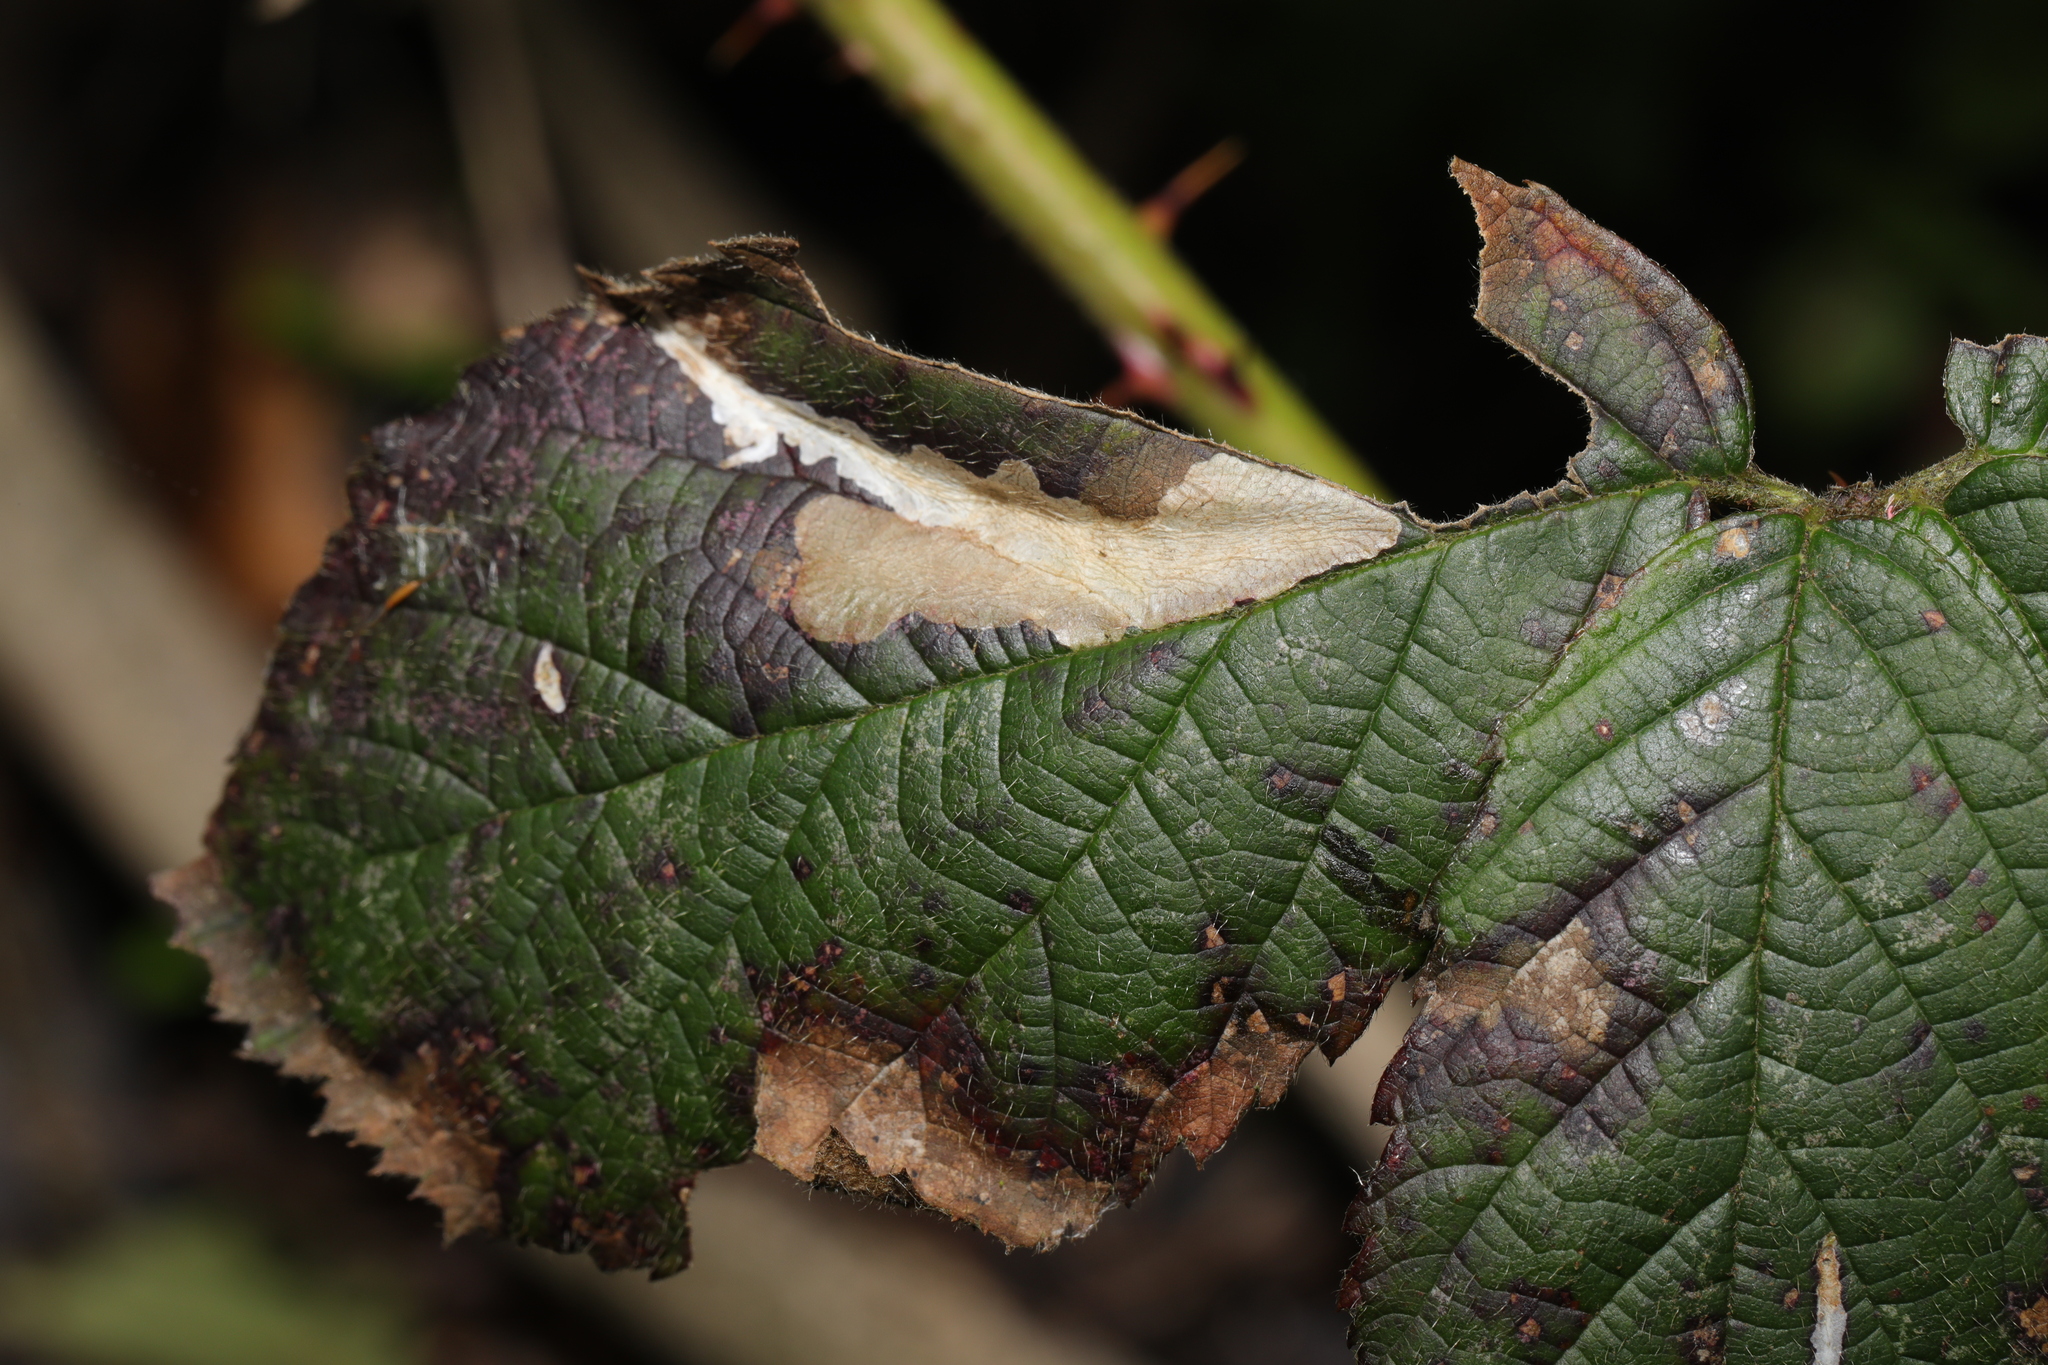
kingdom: Animalia
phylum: Arthropoda
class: Insecta
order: Lepidoptera
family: Tischeriidae
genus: Coptotriche
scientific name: Coptotriche marginea
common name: Bordered carl
